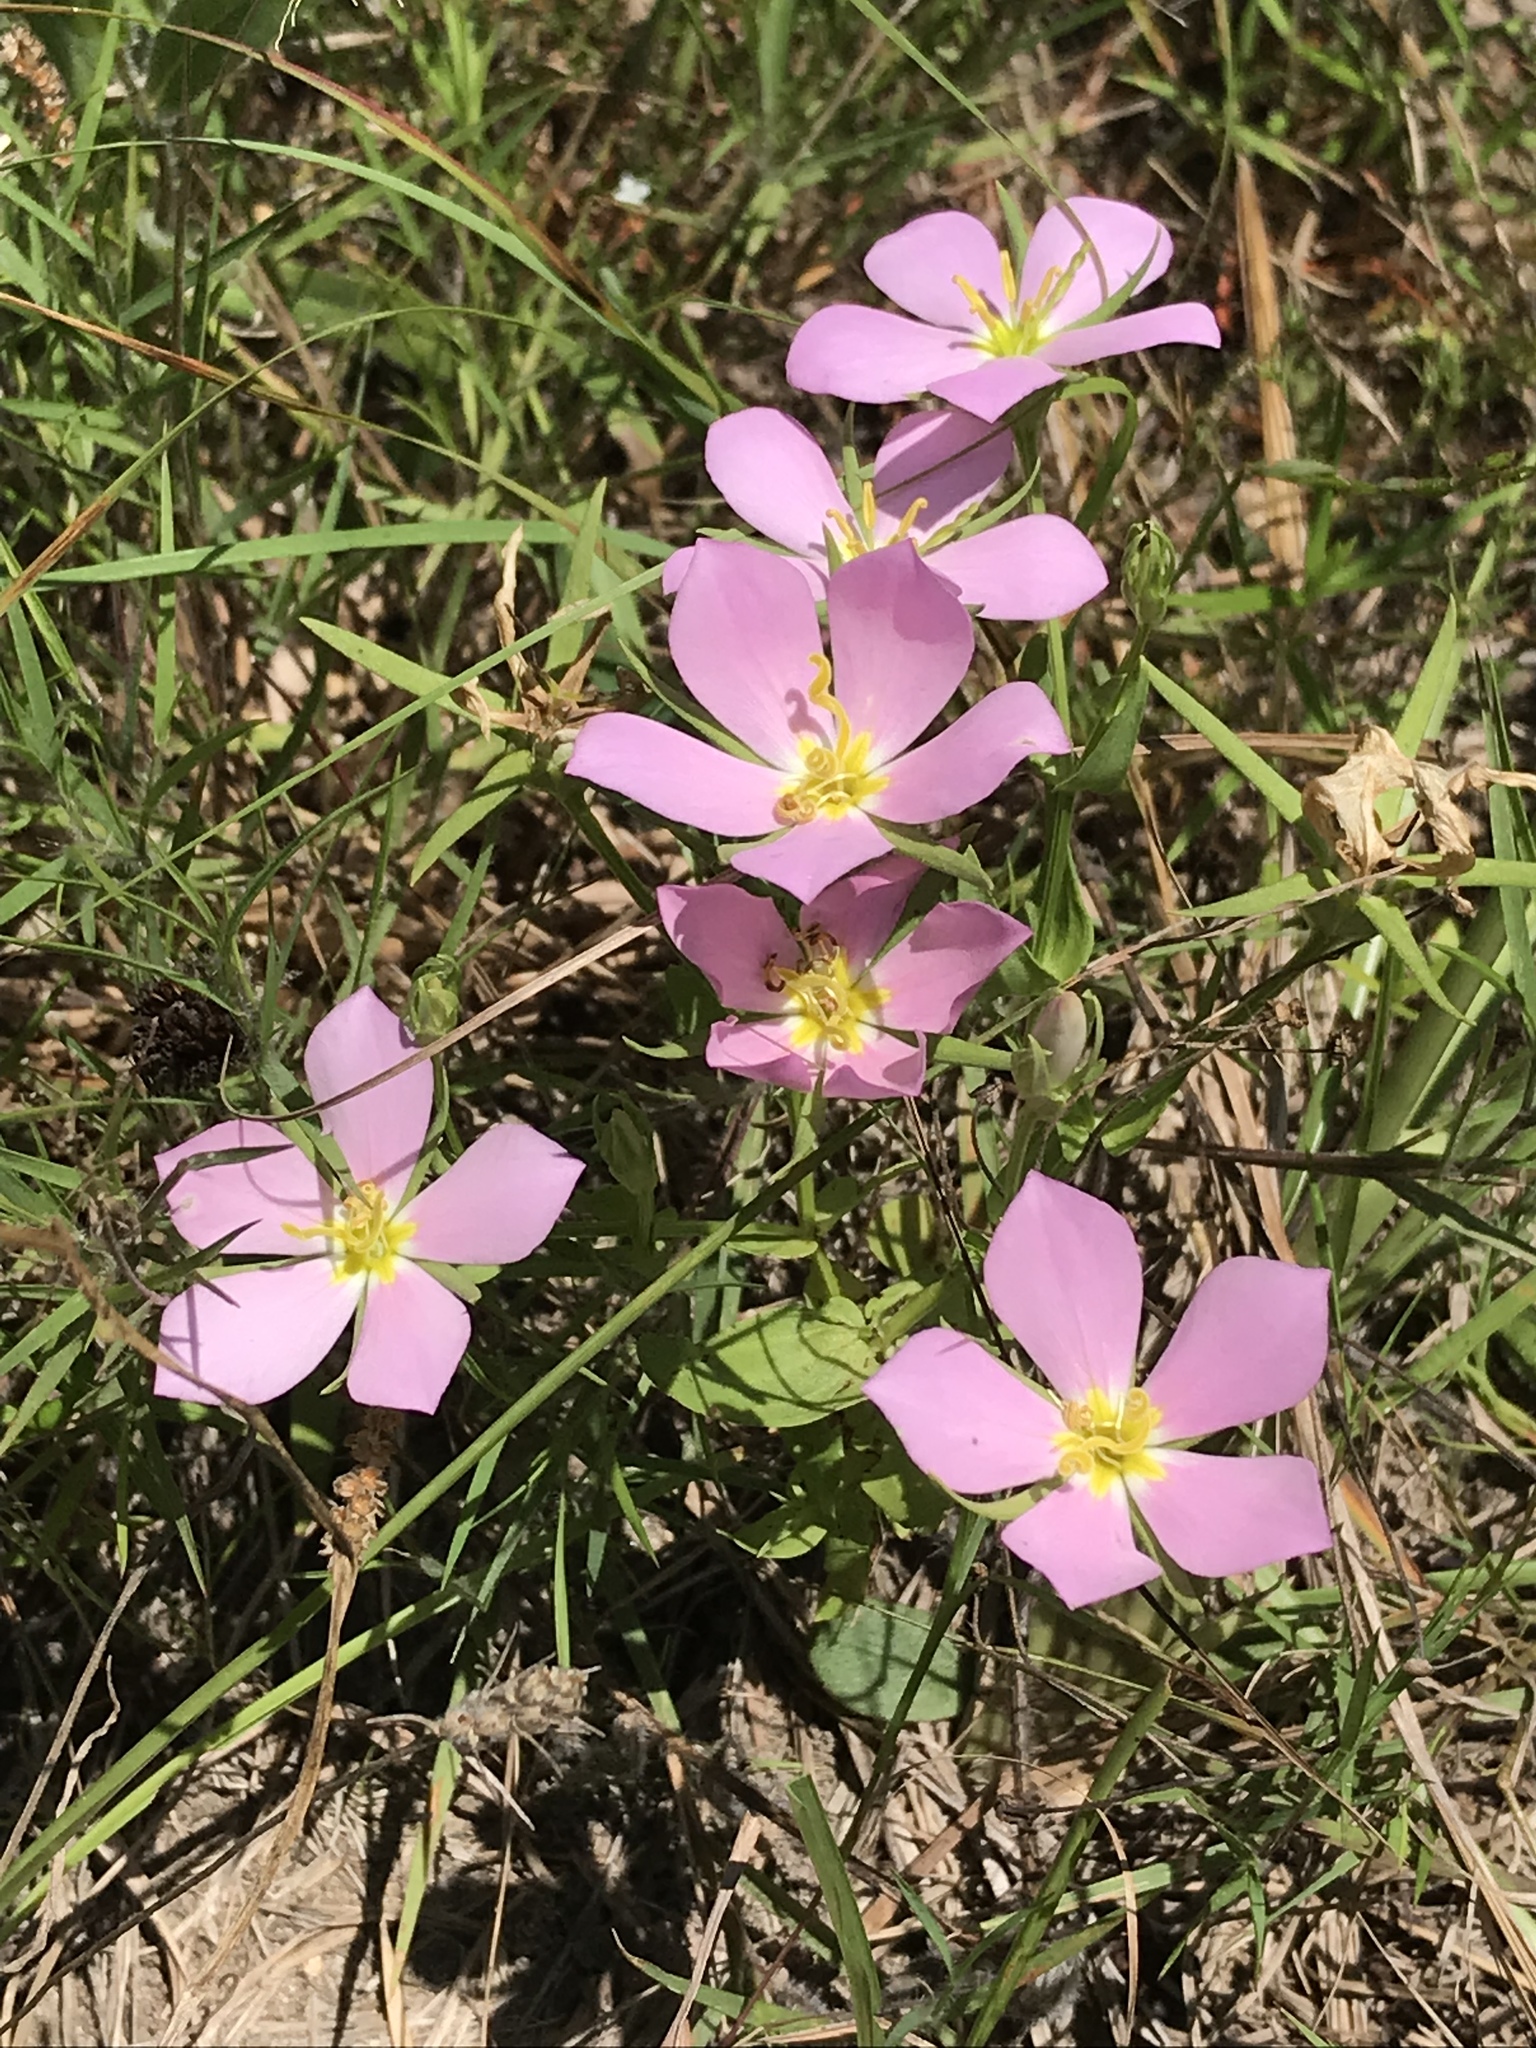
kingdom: Plantae
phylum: Tracheophyta
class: Magnoliopsida
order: Gentianales
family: Gentianaceae
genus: Sabatia
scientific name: Sabatia campestris
